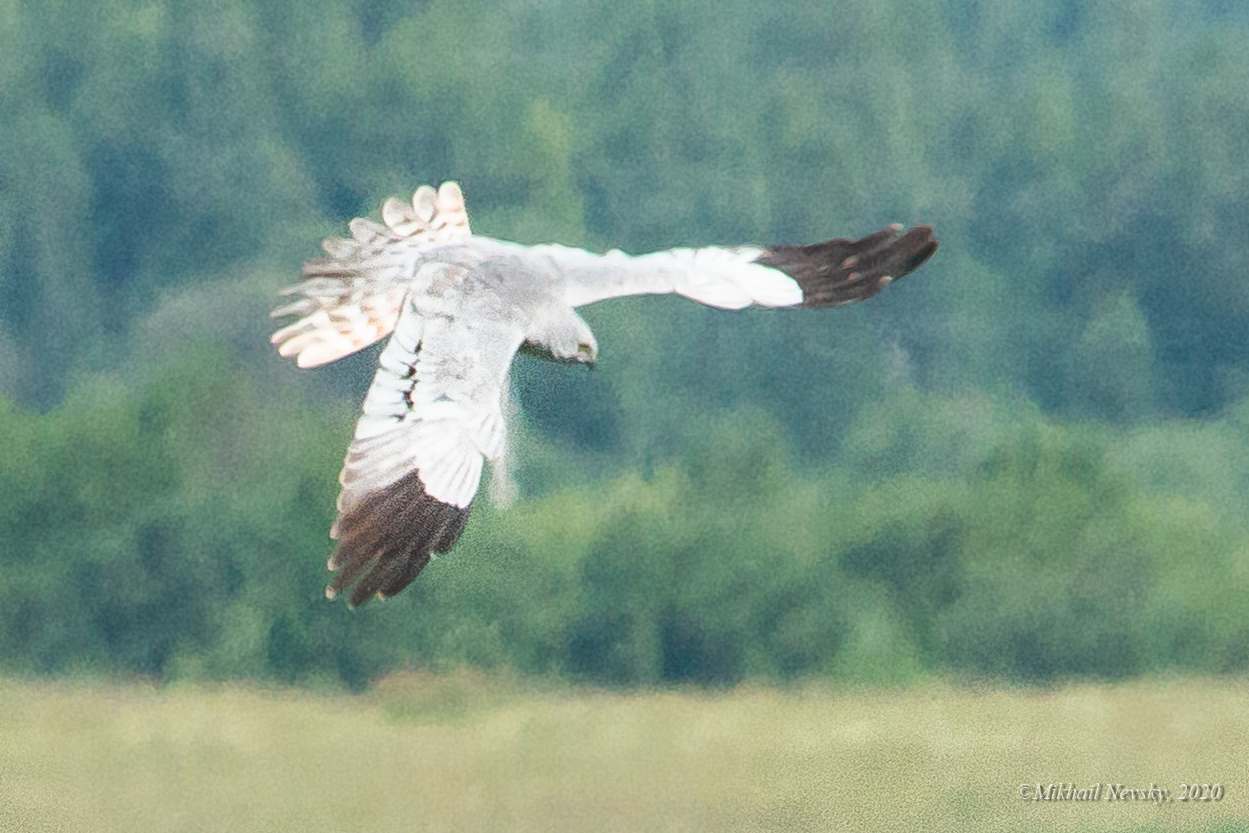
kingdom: Animalia
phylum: Chordata
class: Aves
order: Accipitriformes
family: Accipitridae
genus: Circus
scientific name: Circus pygargus
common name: Montagu's harrier
